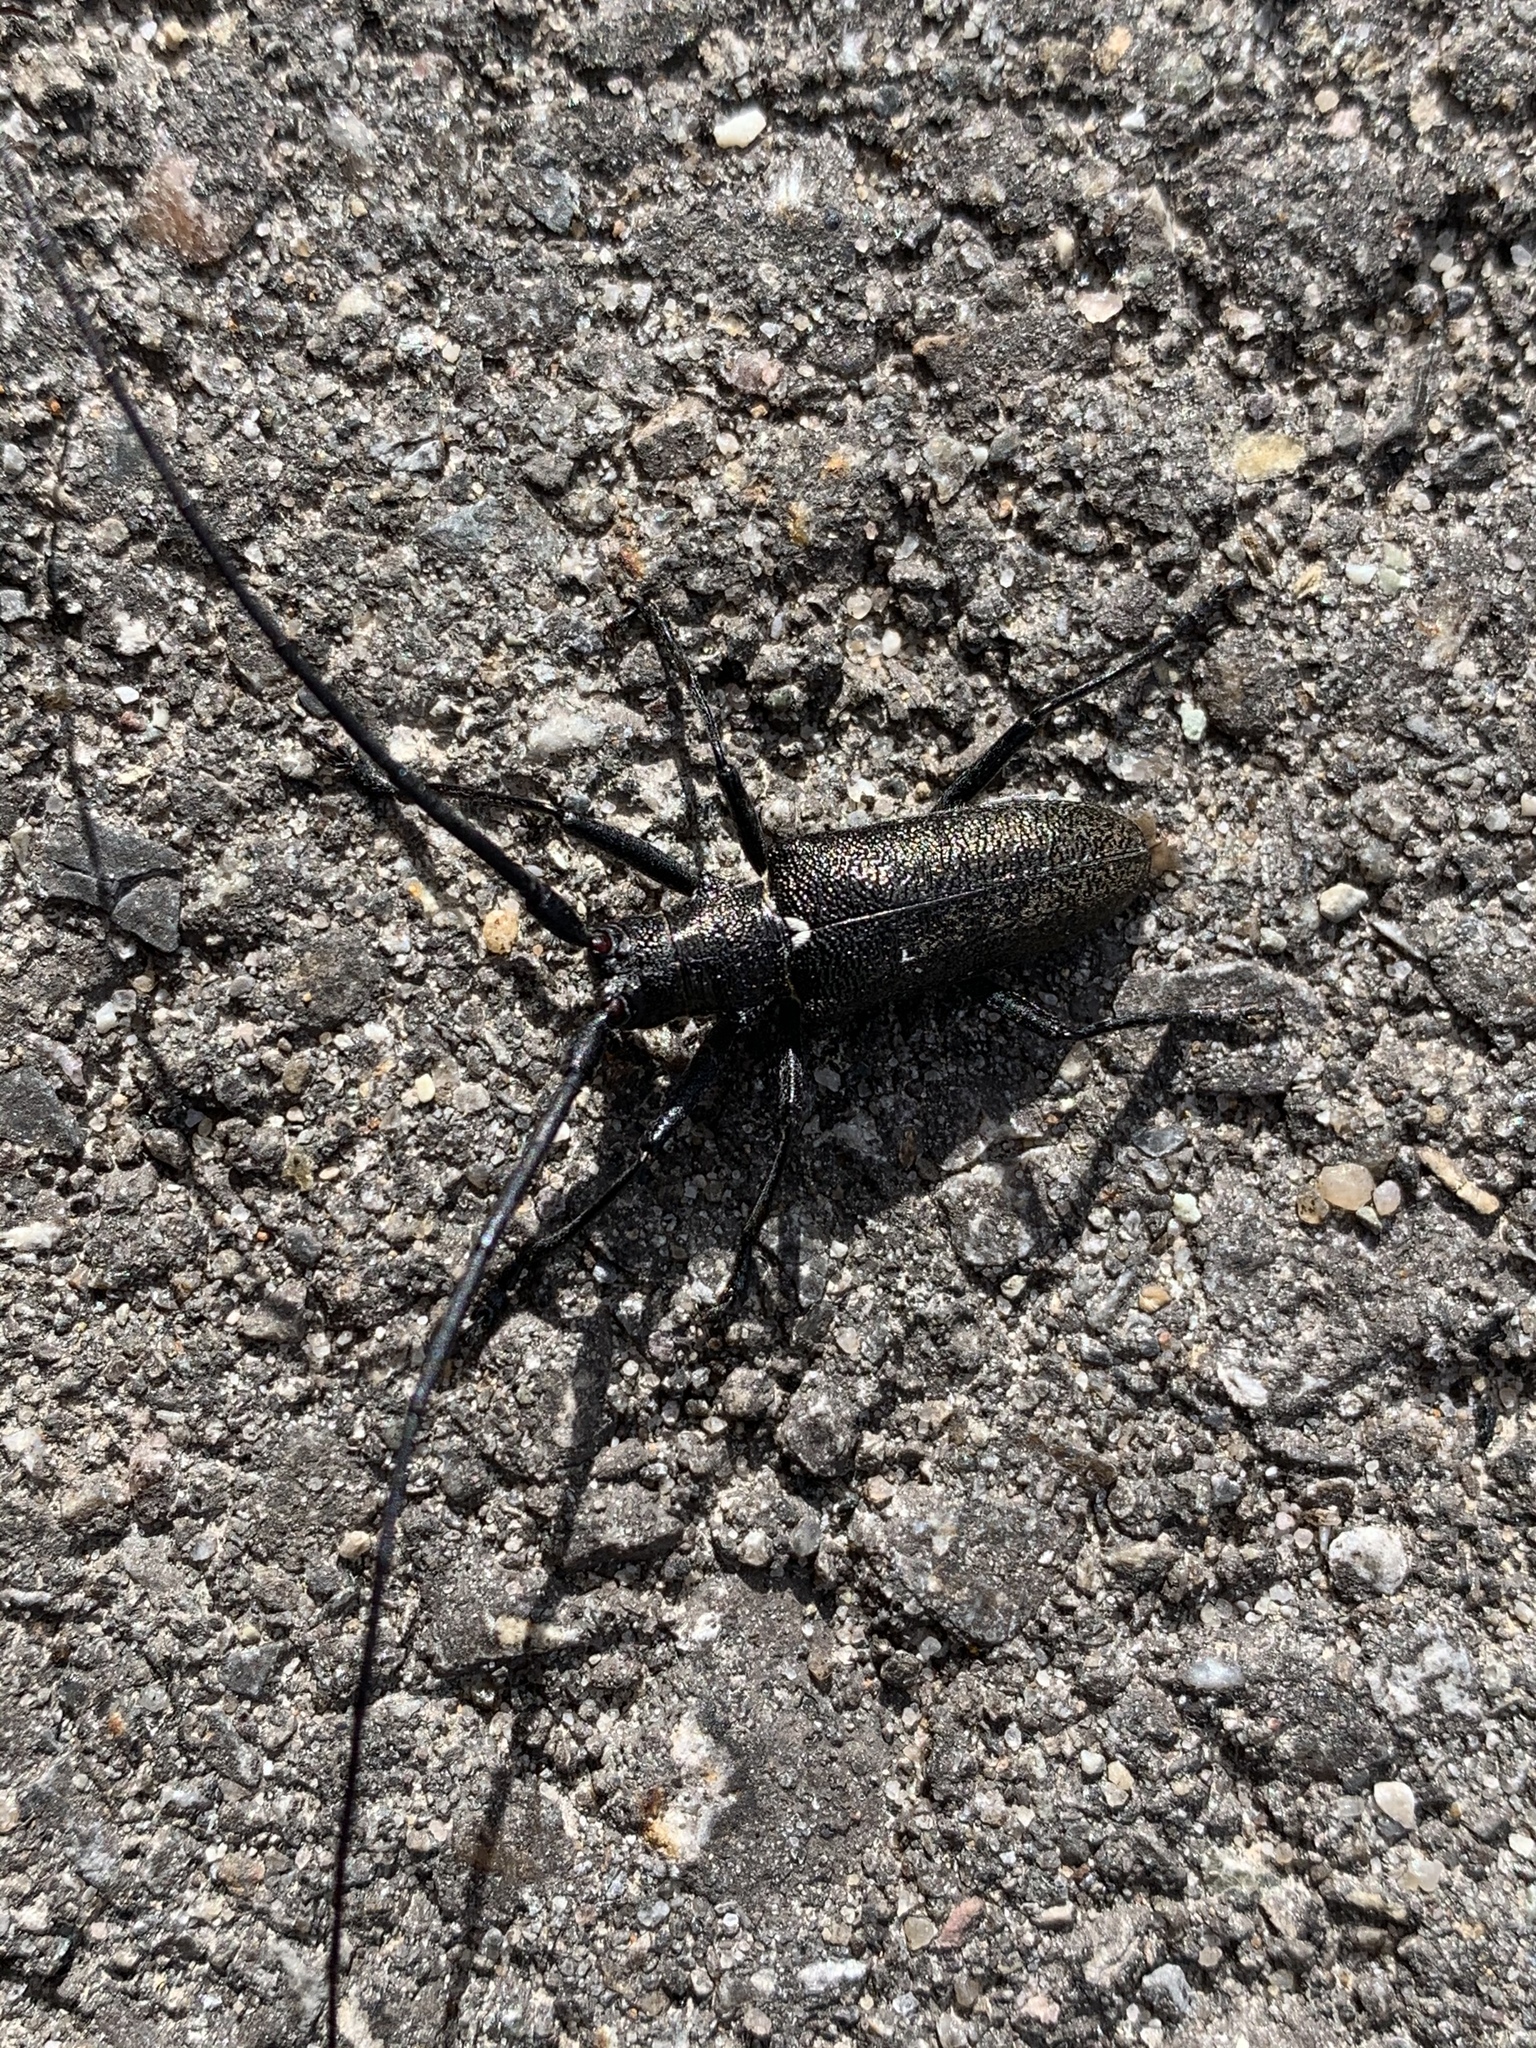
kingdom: Animalia
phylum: Arthropoda
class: Insecta
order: Coleoptera
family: Cerambycidae
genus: Monochamus
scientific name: Monochamus scutellatus
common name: White-spotted sawyer beetle
